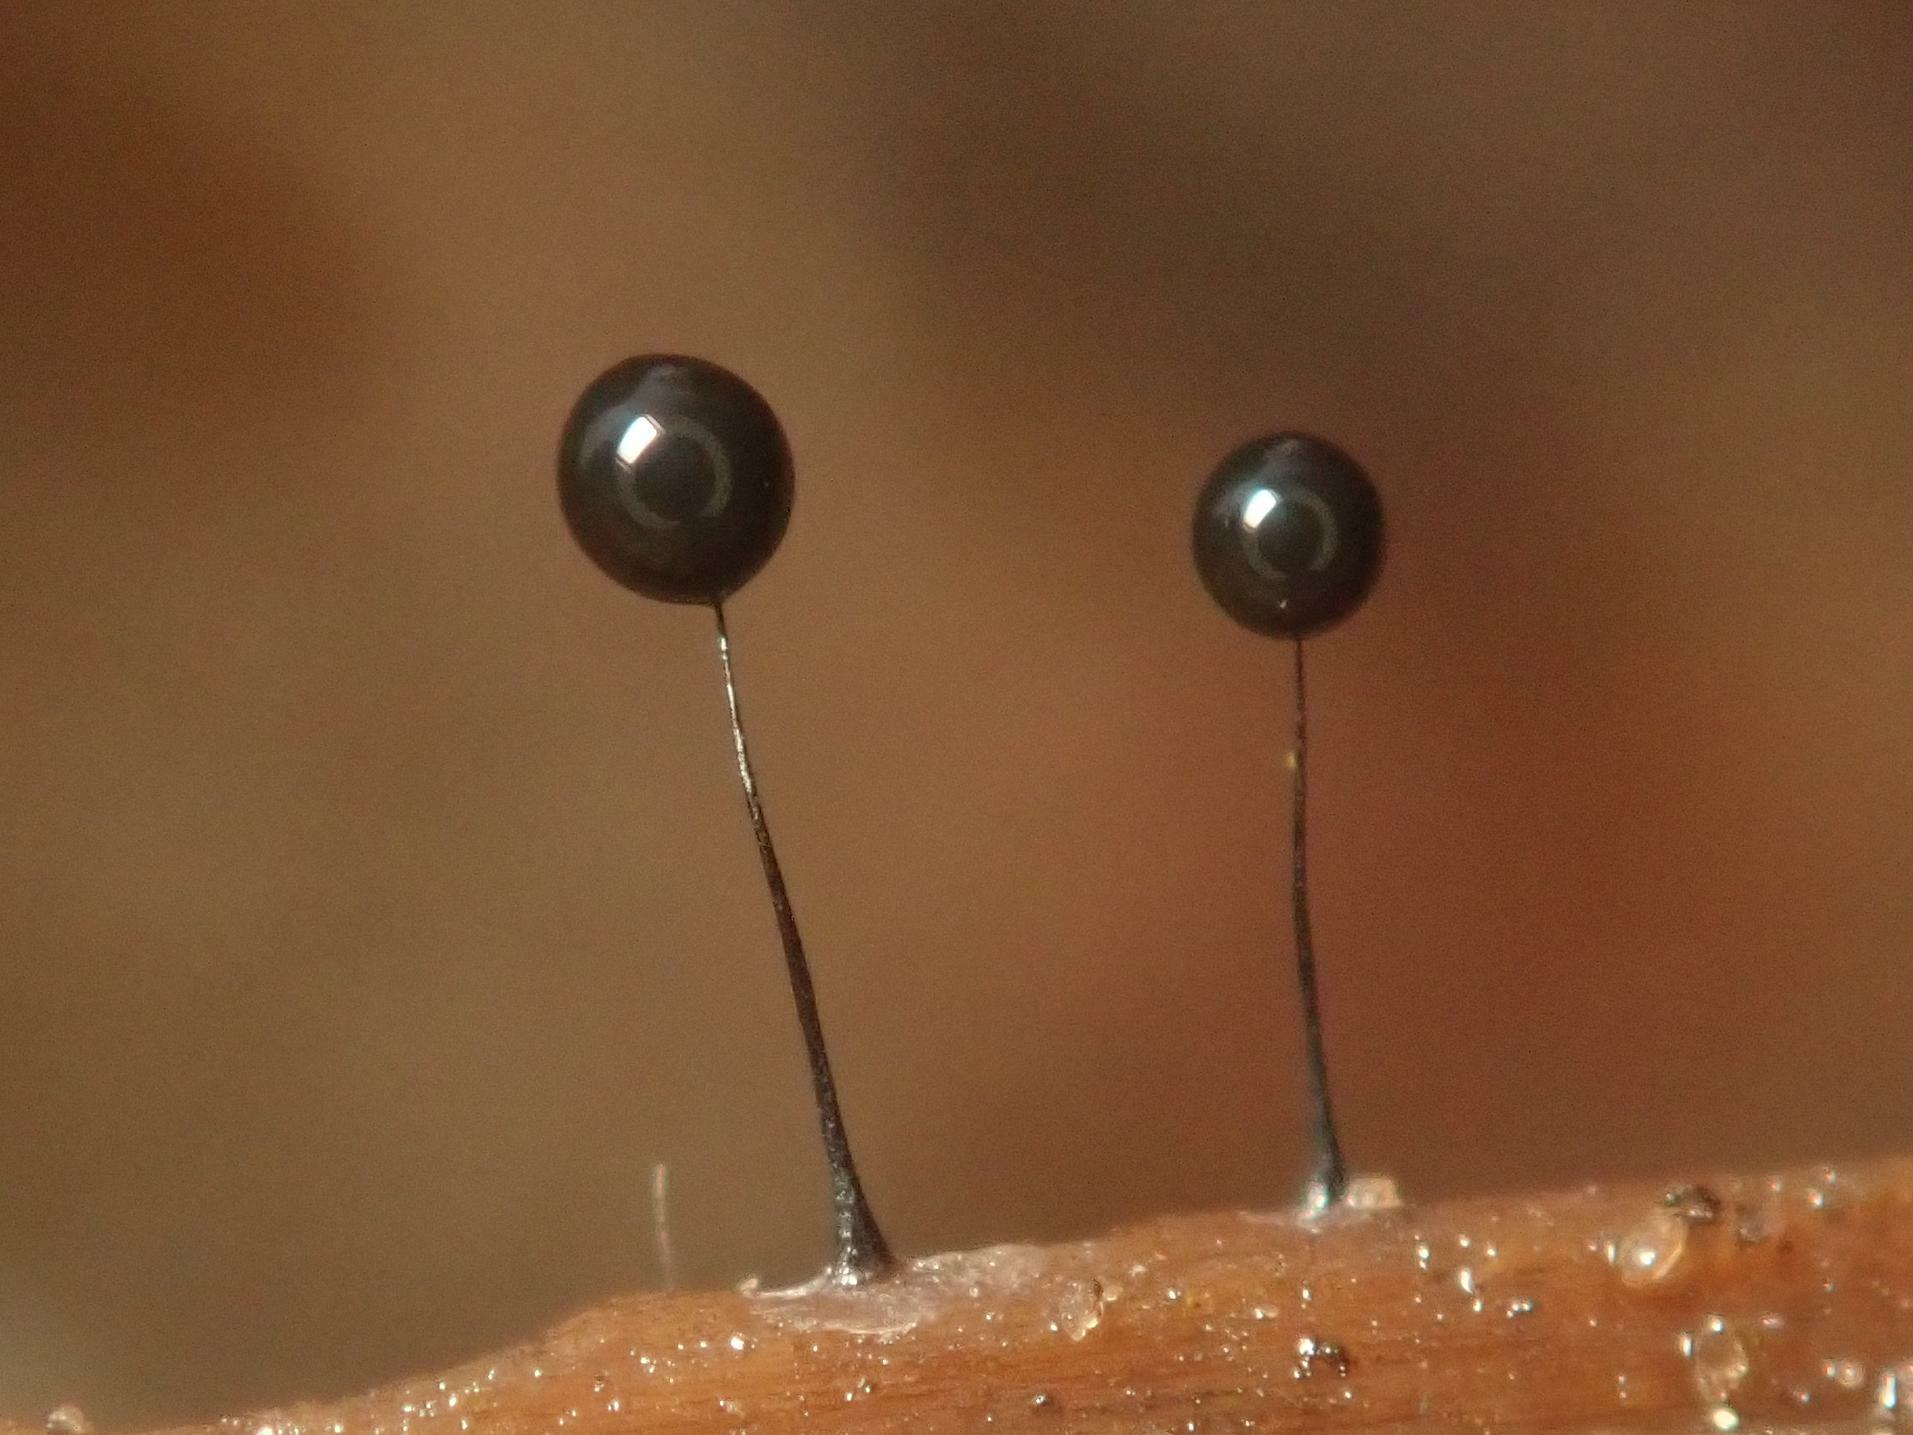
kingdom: Protozoa
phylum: Mycetozoa
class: Myxomycetes
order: Stemonitidales
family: Stemonitidaceae
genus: Comatricha
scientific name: Comatricha nigra
